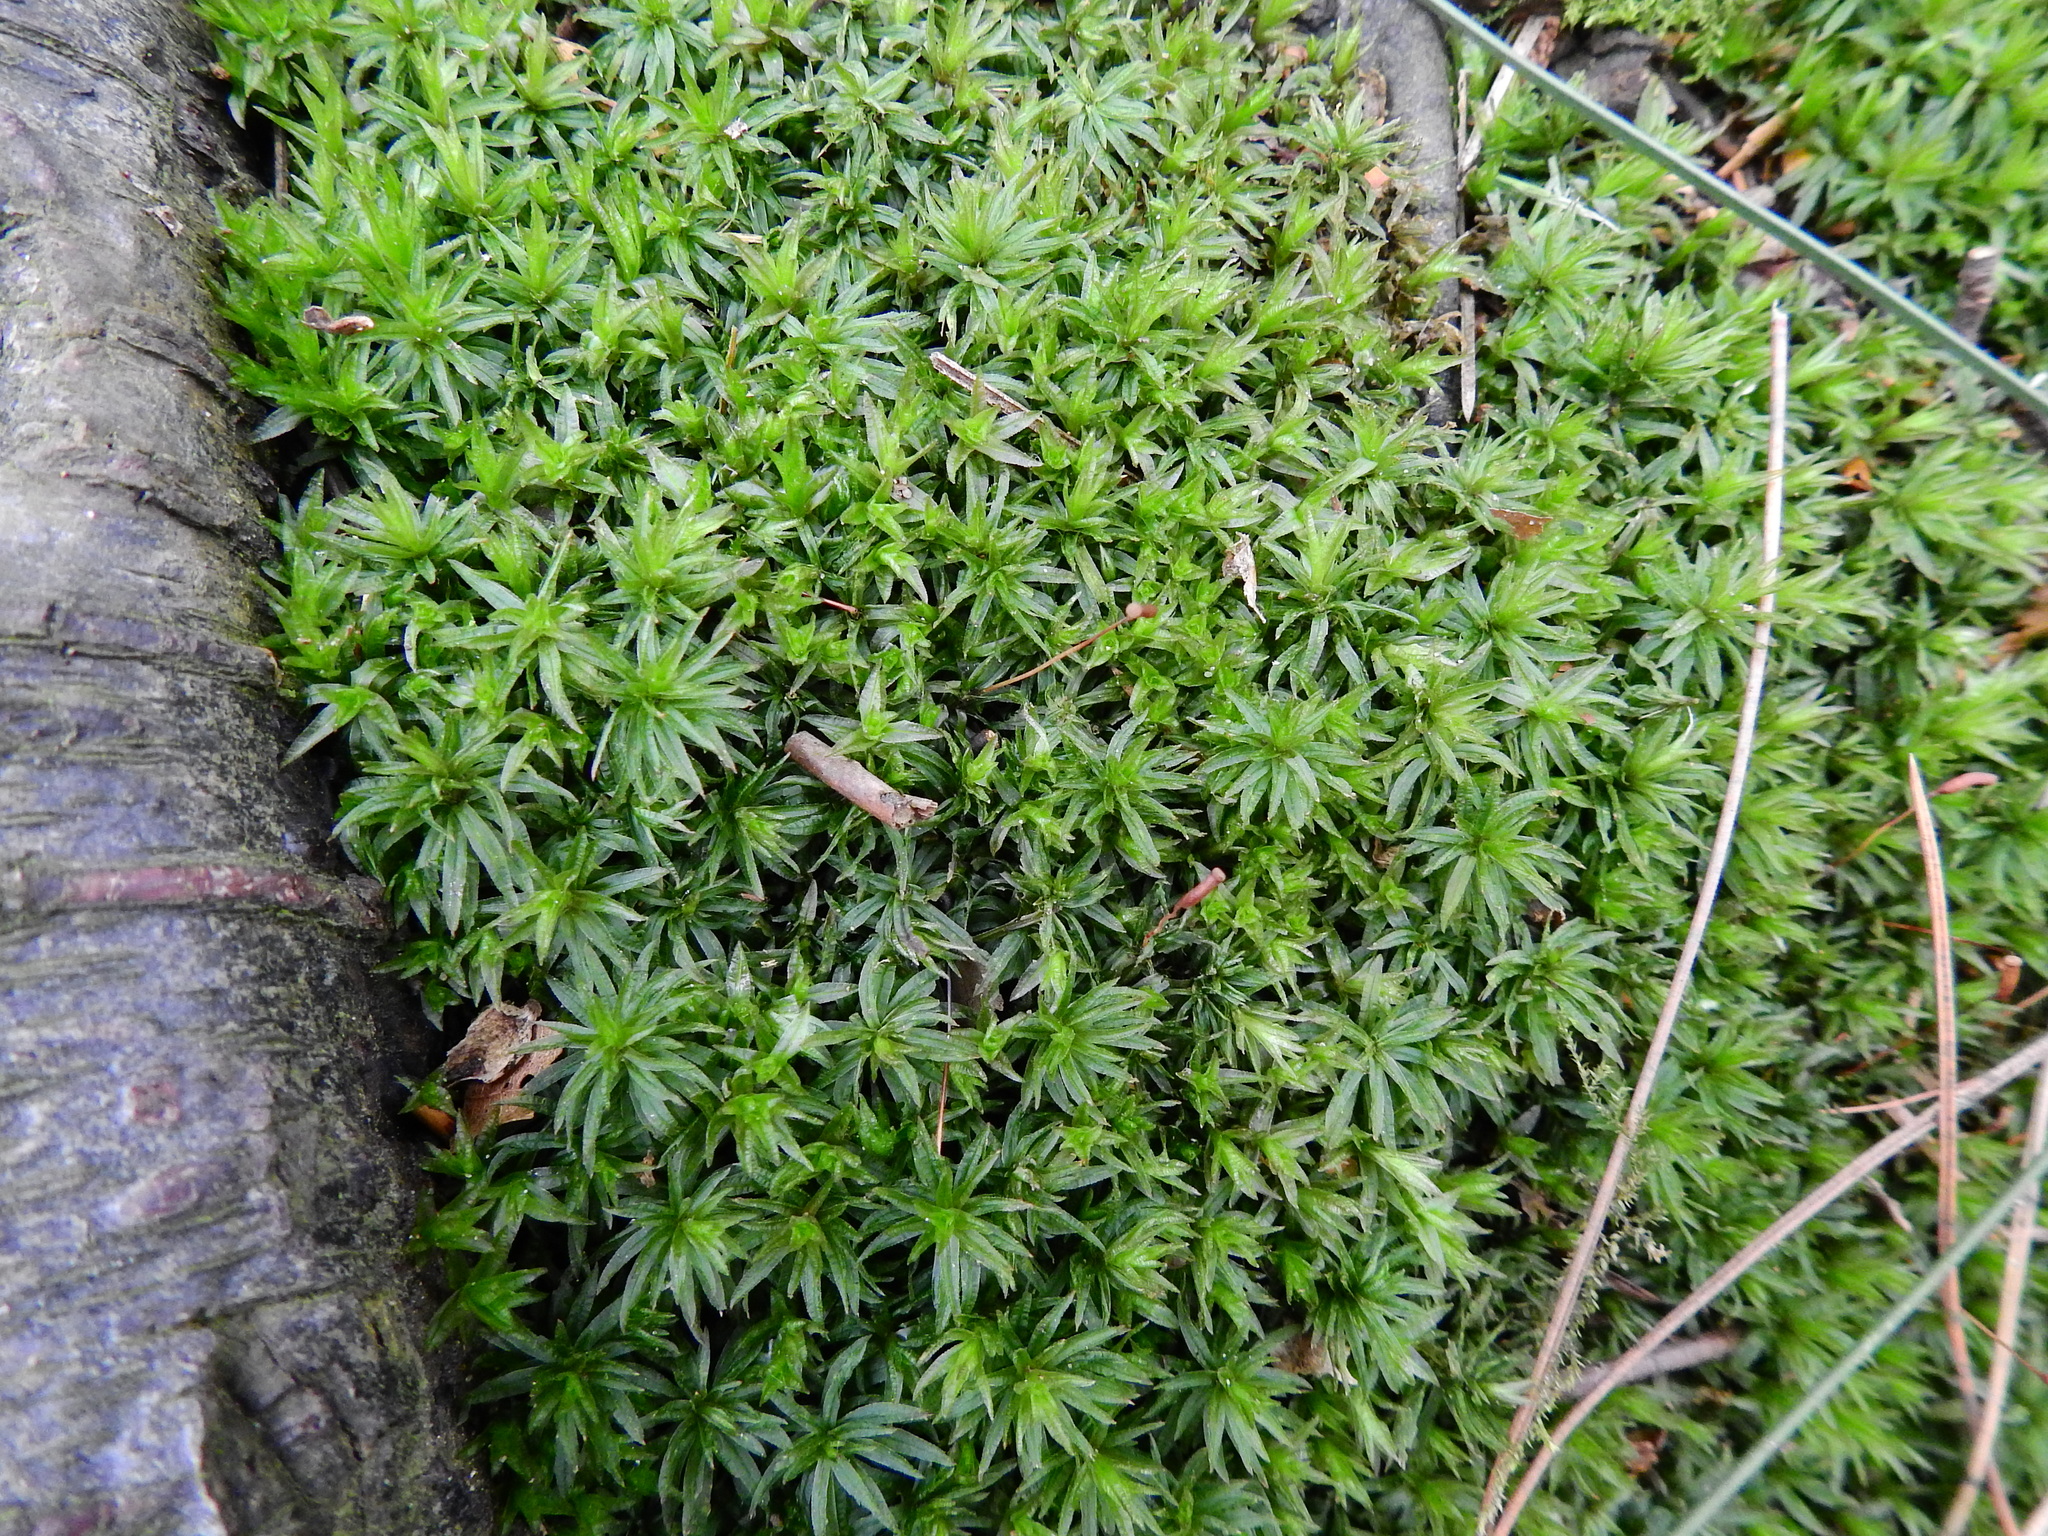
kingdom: Plantae
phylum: Bryophyta
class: Polytrichopsida
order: Polytrichales
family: Polytrichaceae
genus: Atrichum
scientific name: Atrichum undulatum
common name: Common smoothcap
